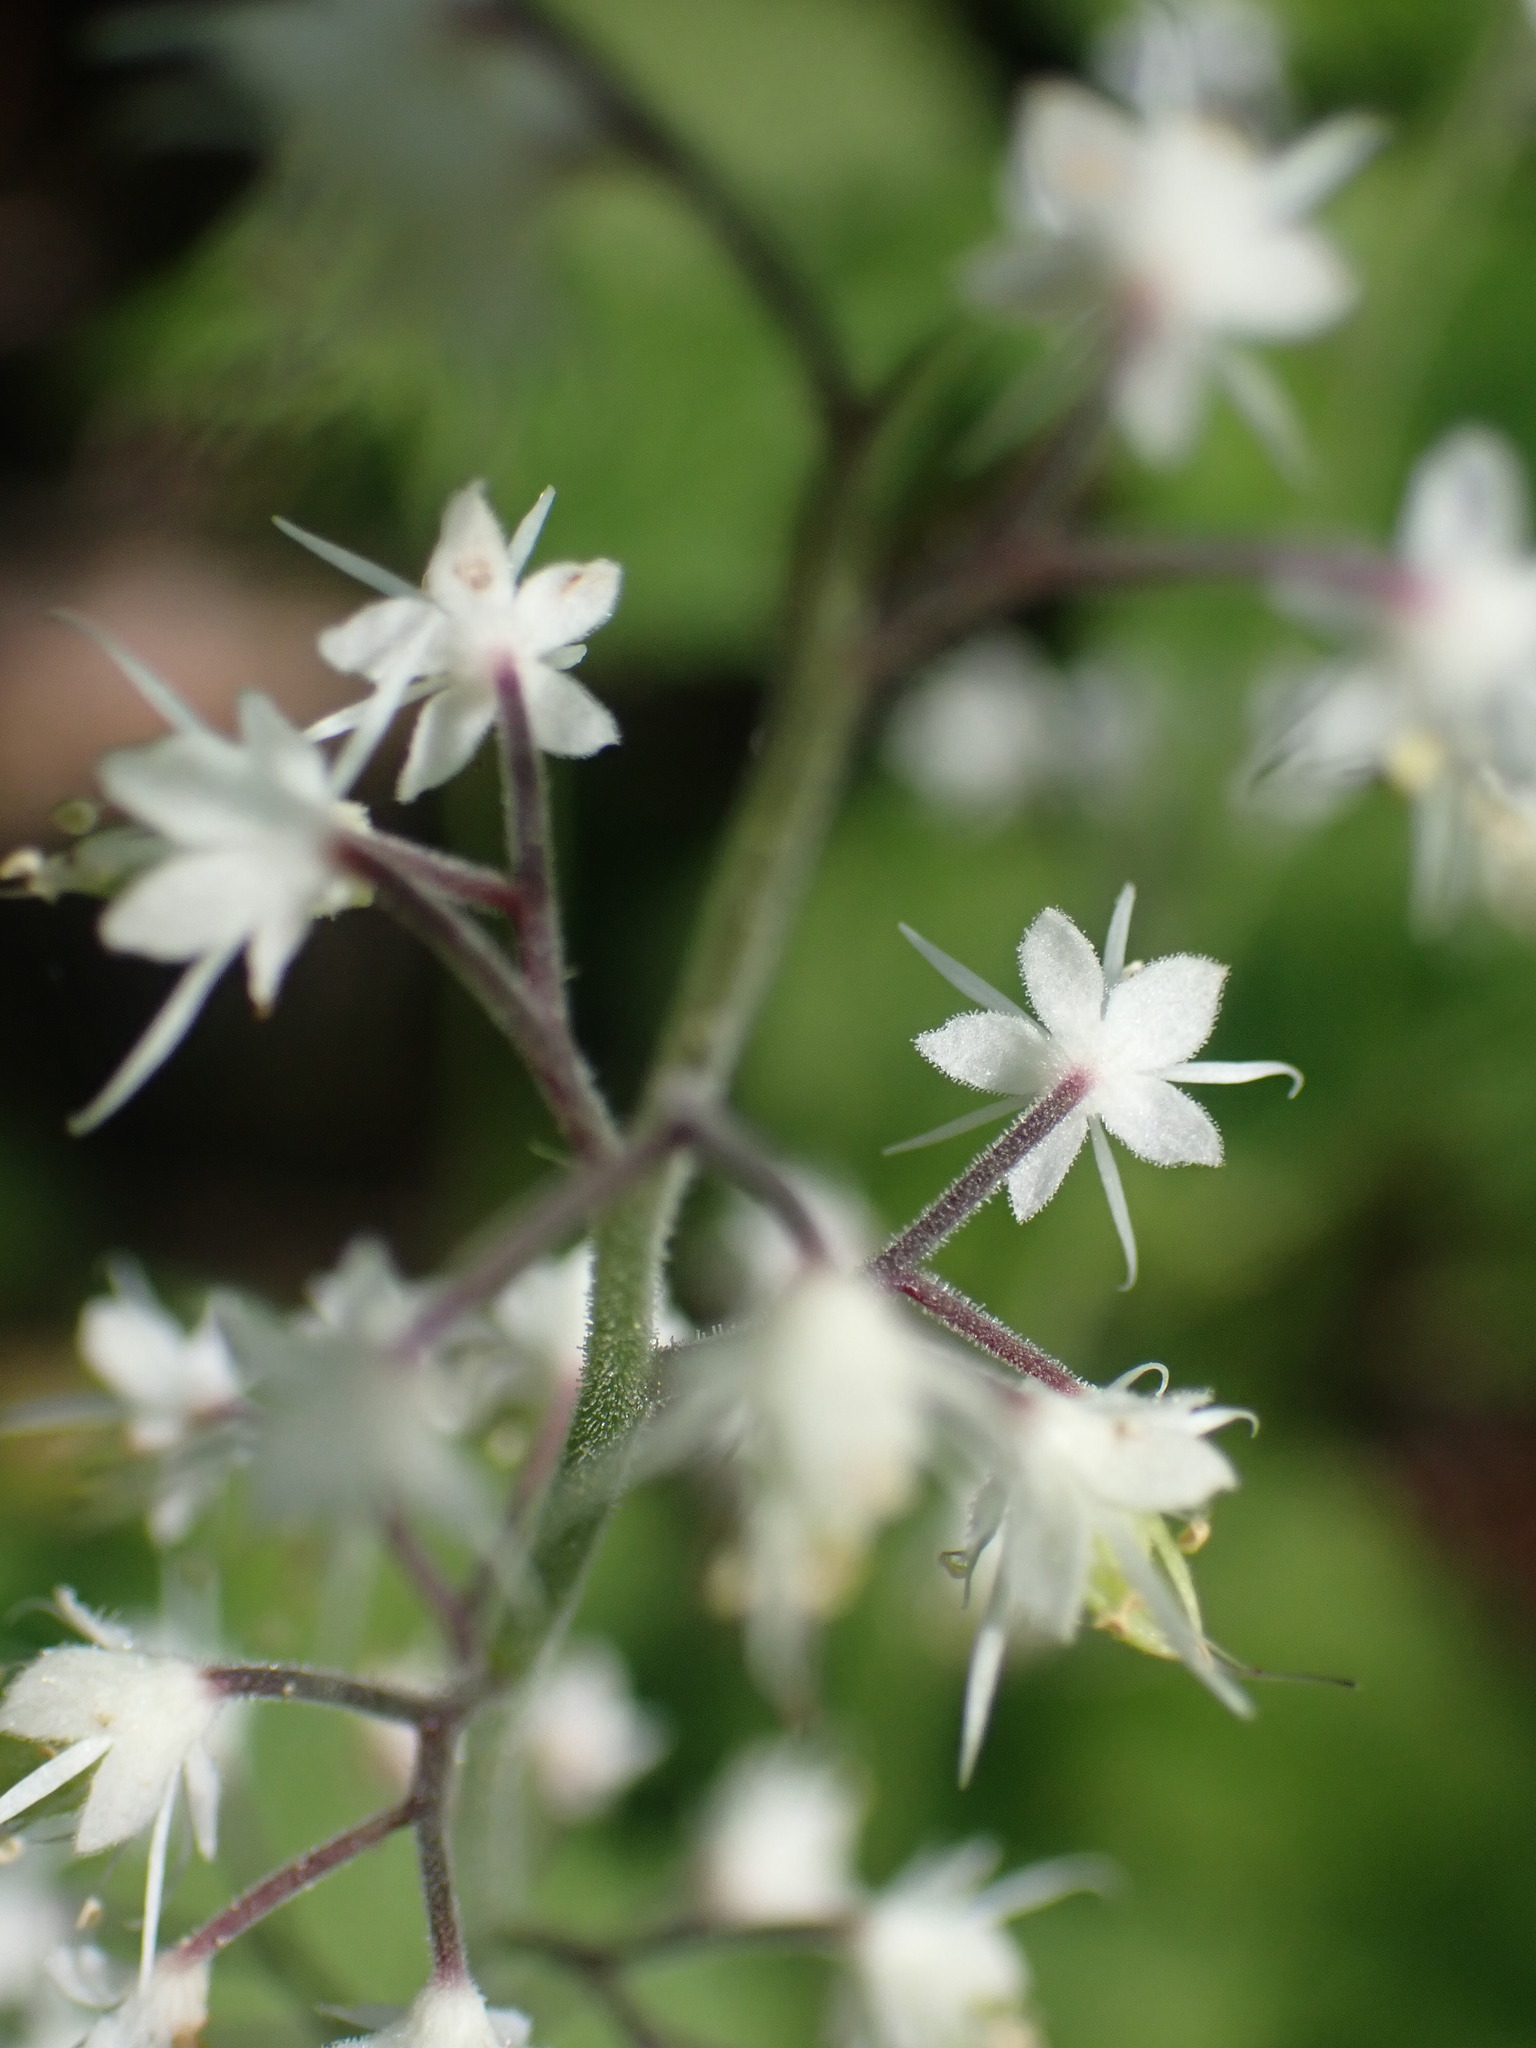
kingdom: Plantae
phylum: Tracheophyta
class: Magnoliopsida
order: Saxifragales
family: Saxifragaceae
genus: Tiarella
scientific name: Tiarella trifoliata
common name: Sugar-scoop
